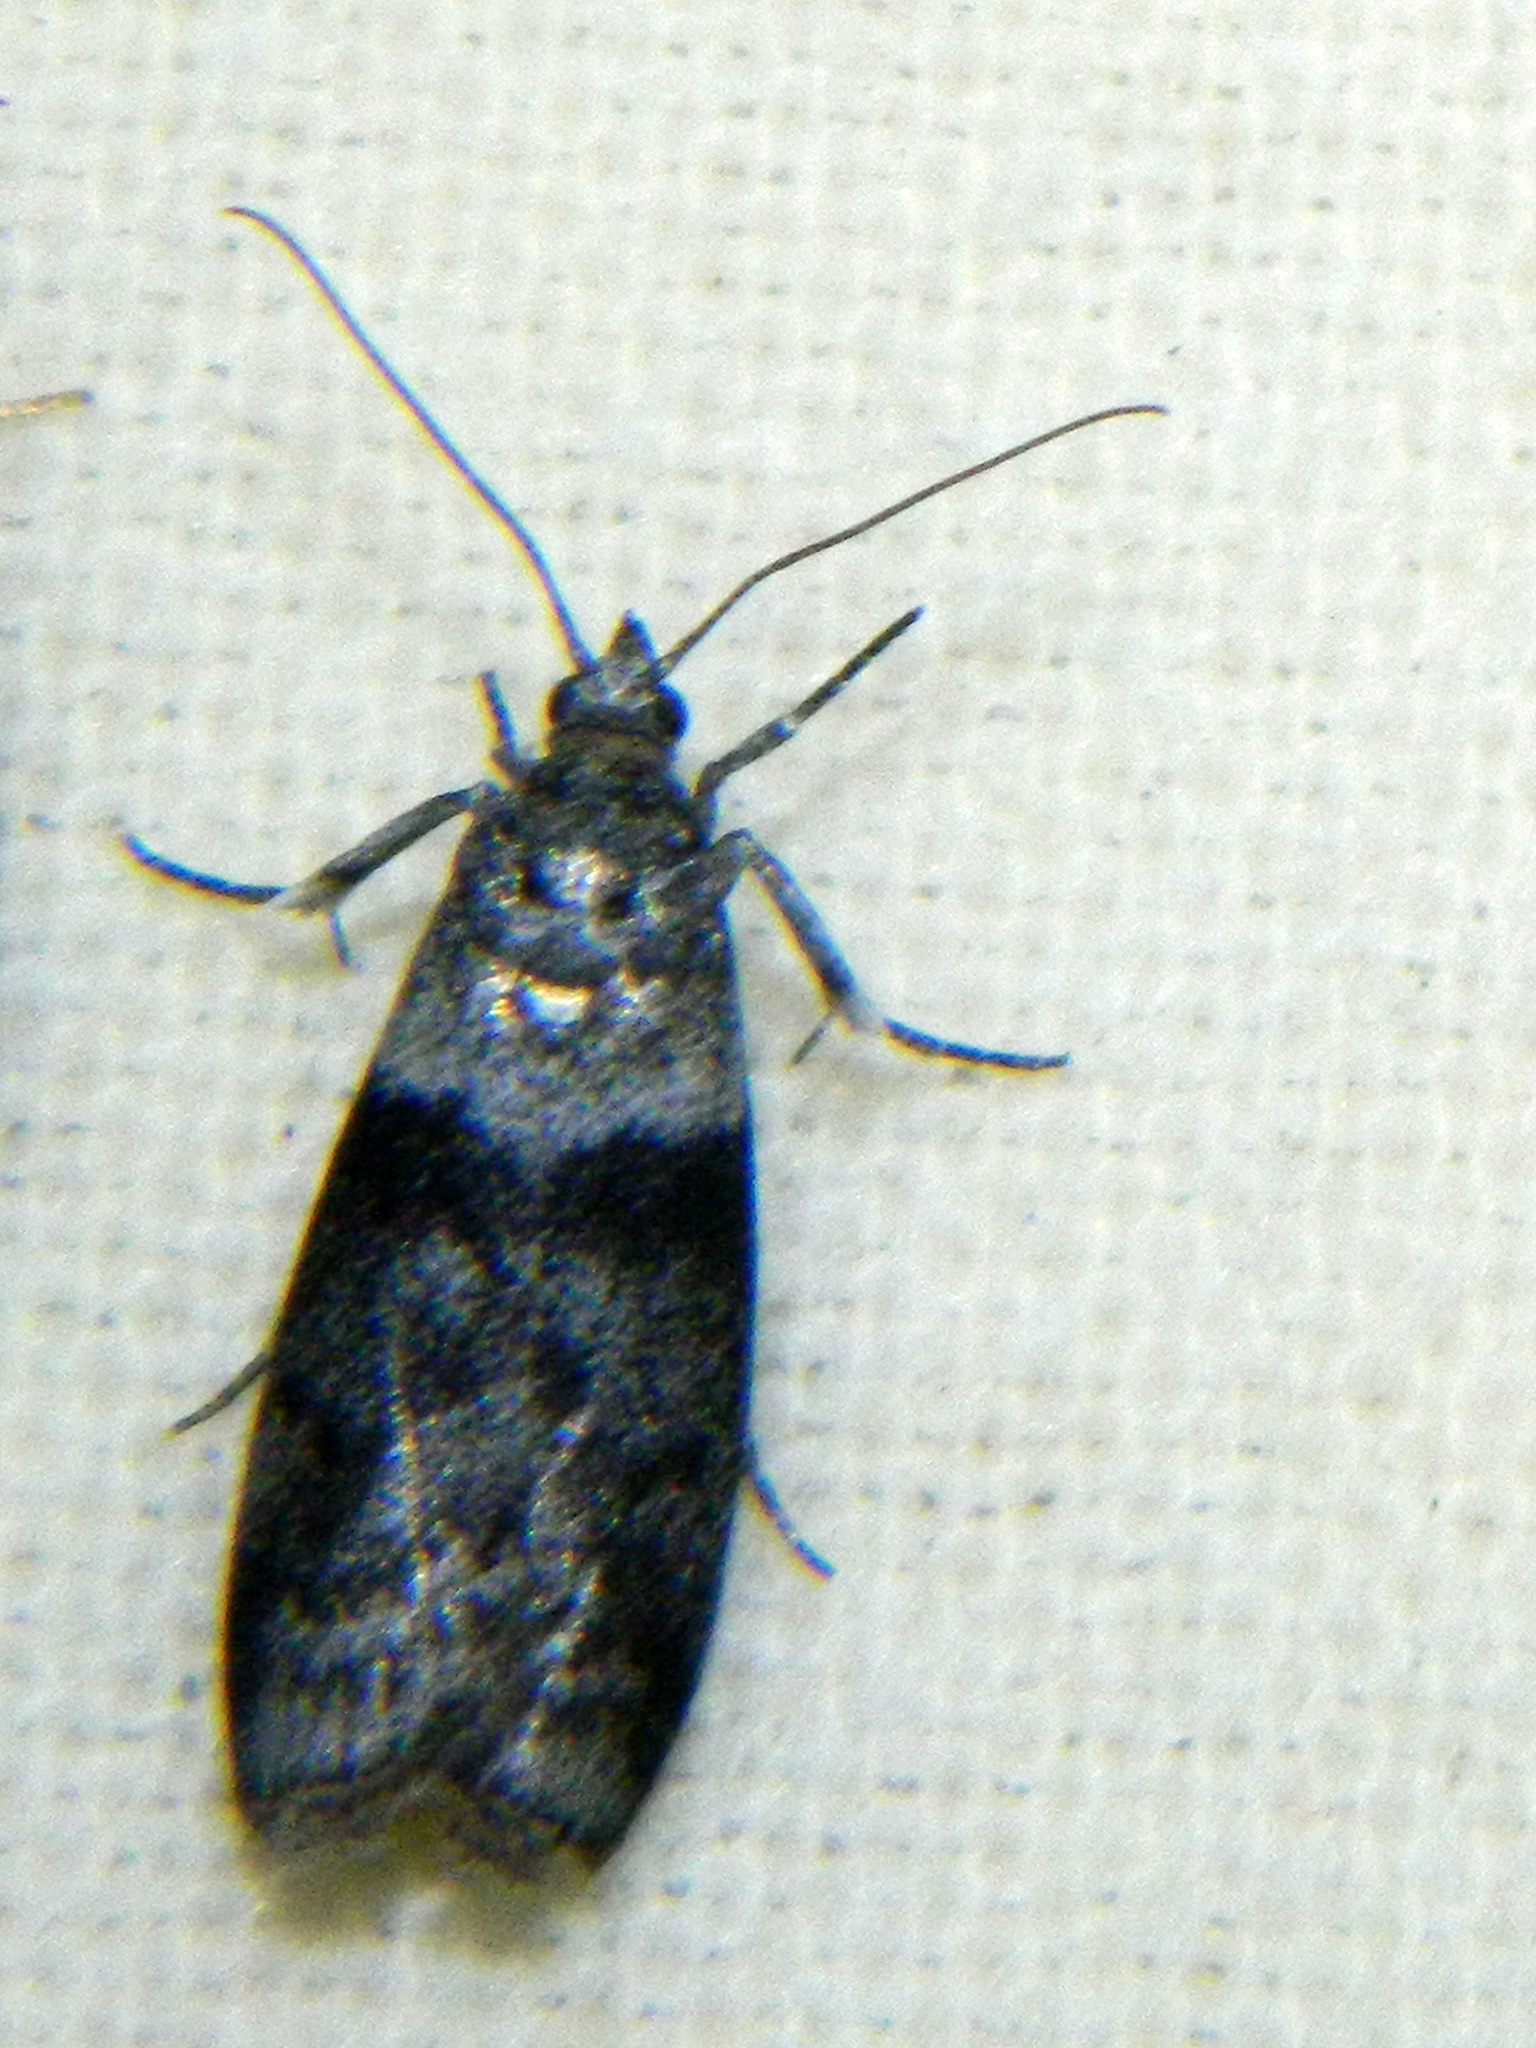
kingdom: Animalia
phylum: Arthropoda
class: Insecta
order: Lepidoptera
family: Pyralidae
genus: Meroptera
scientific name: Meroptera pravella
